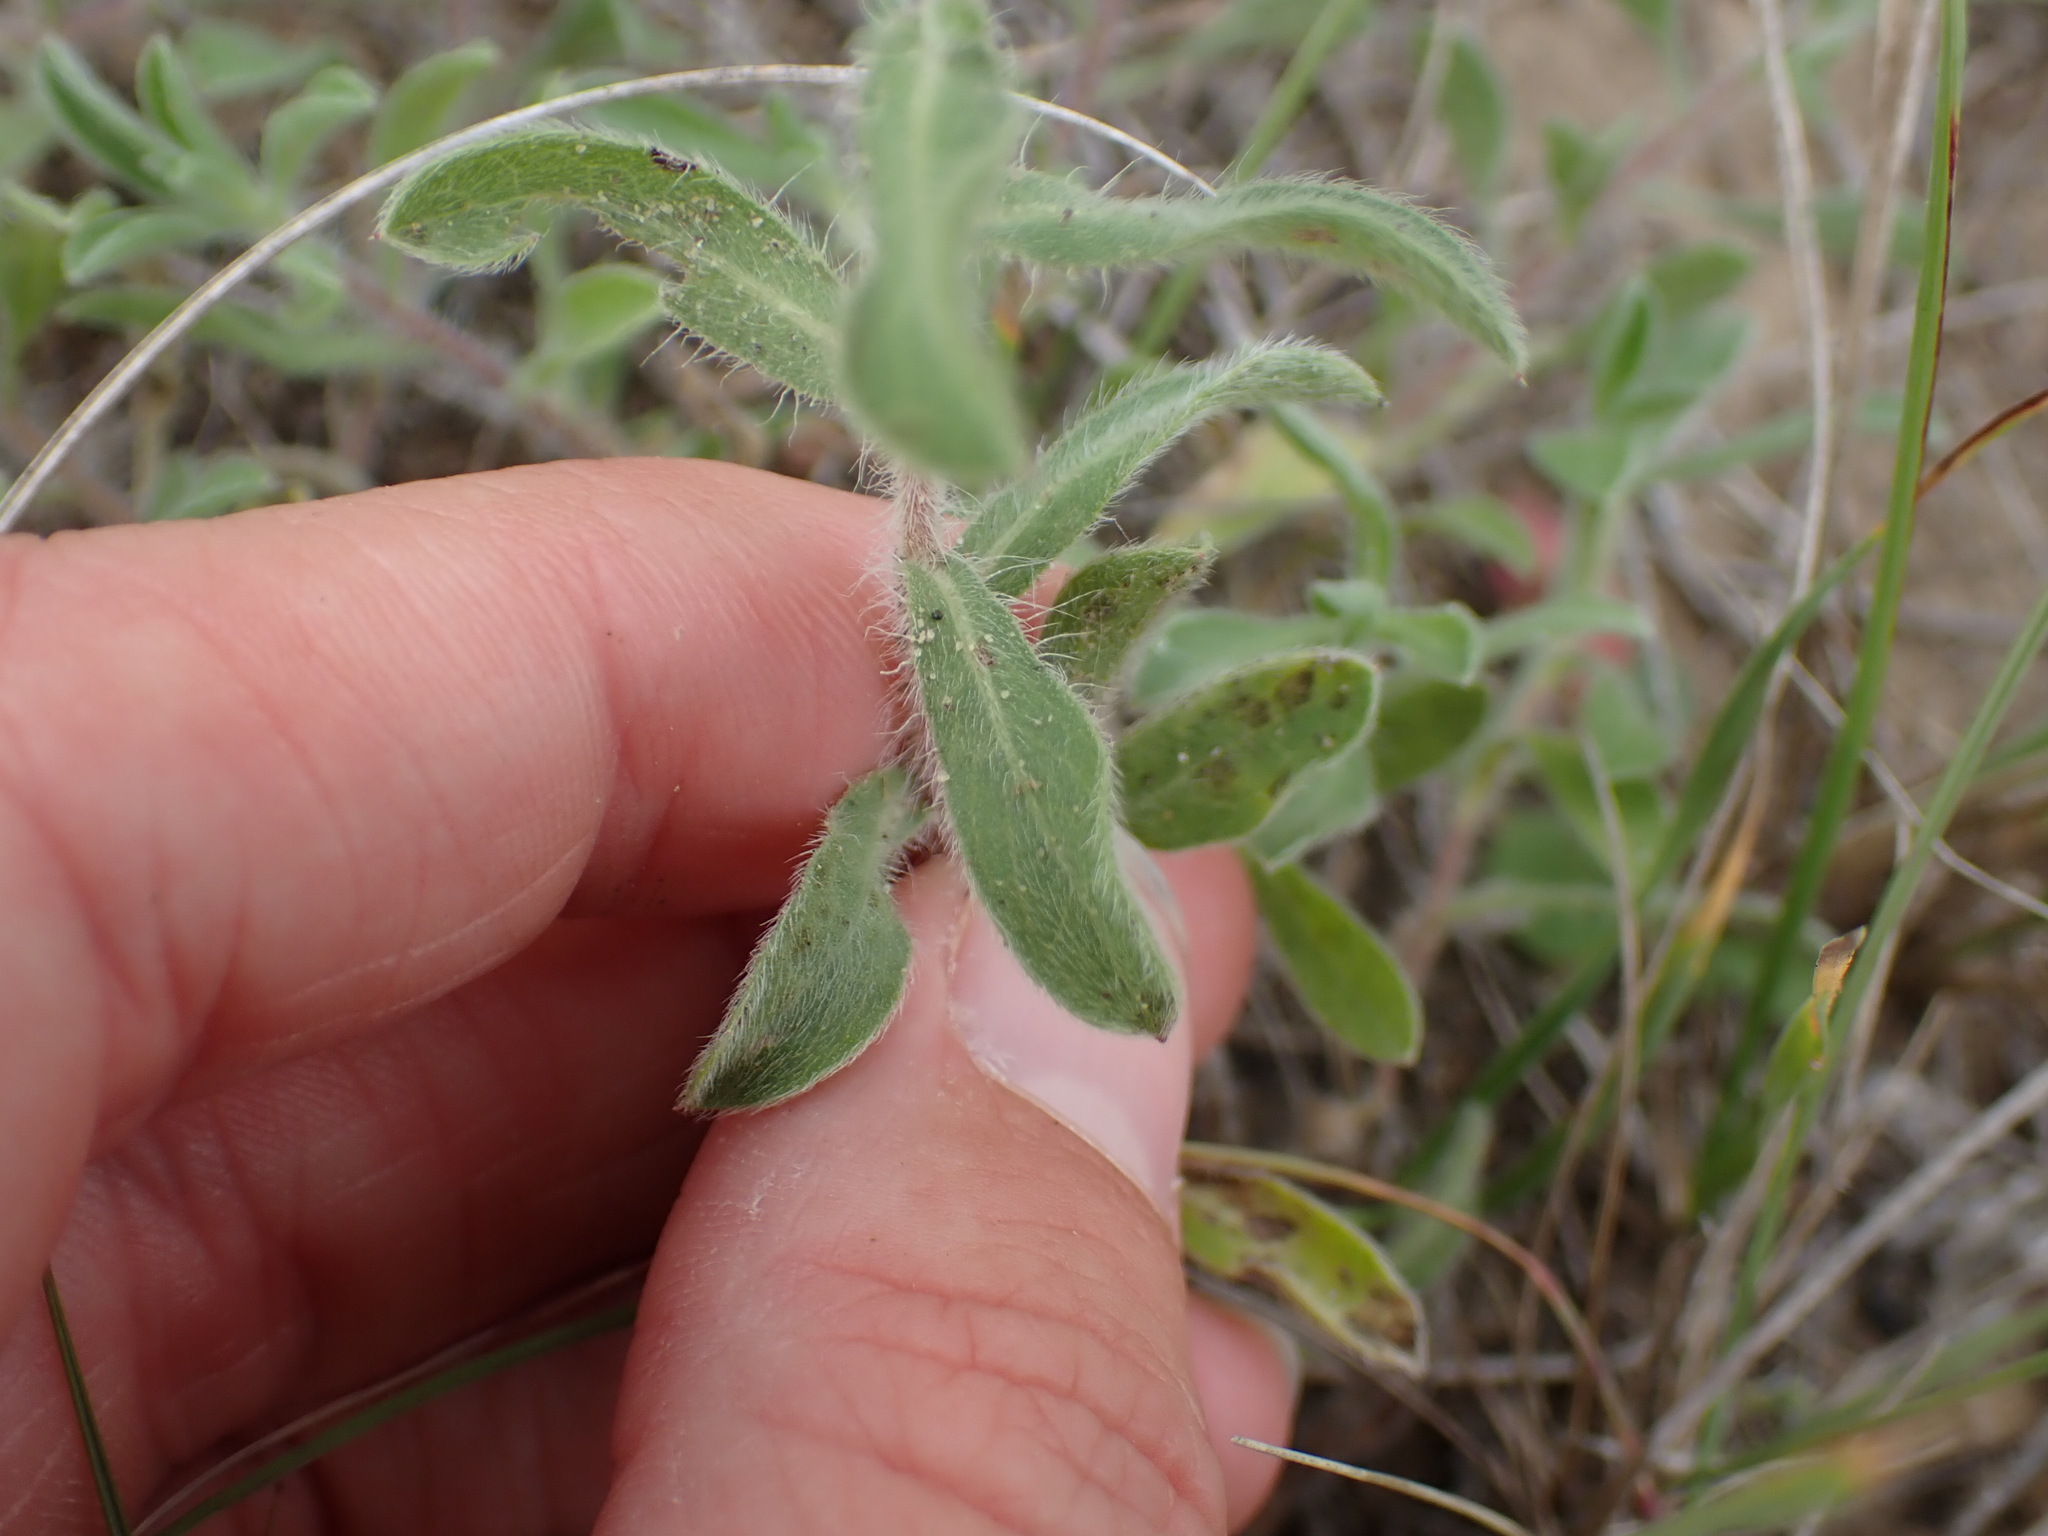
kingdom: Plantae
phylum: Tracheophyta
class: Magnoliopsida
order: Asterales
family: Asteraceae
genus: Heterotheca
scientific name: Heterotheca villosa
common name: Hairy false goldenaster
